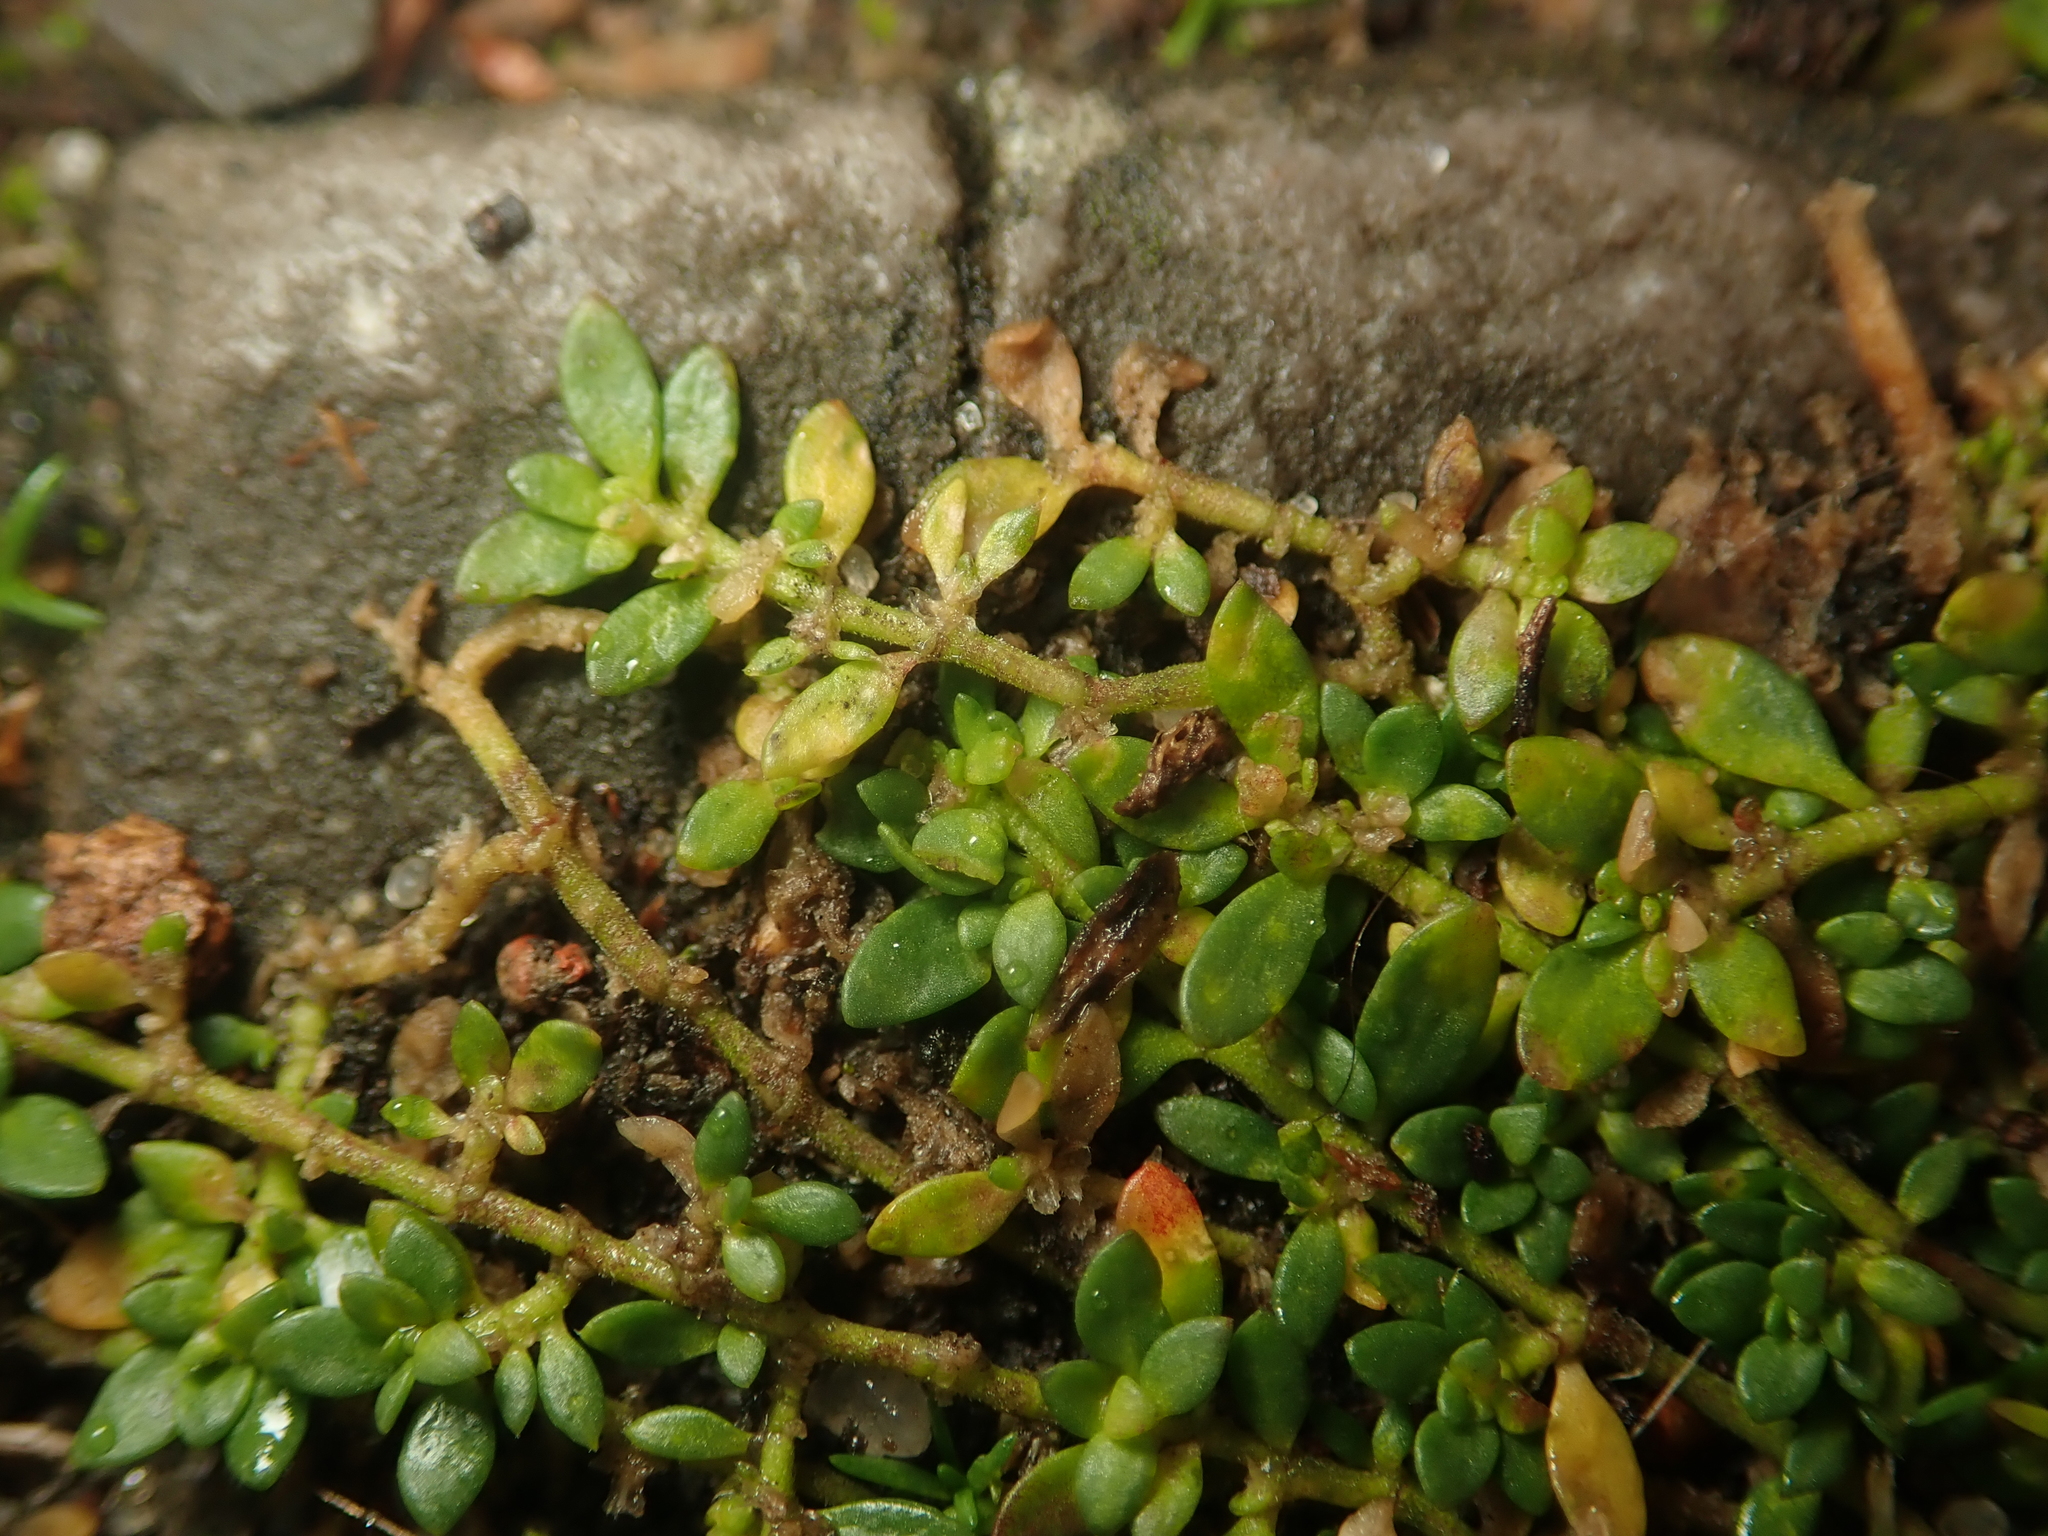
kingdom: Plantae
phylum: Tracheophyta
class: Magnoliopsida
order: Caryophyllales
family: Caryophyllaceae
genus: Herniaria
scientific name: Herniaria glabra
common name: Smooth rupturewort
